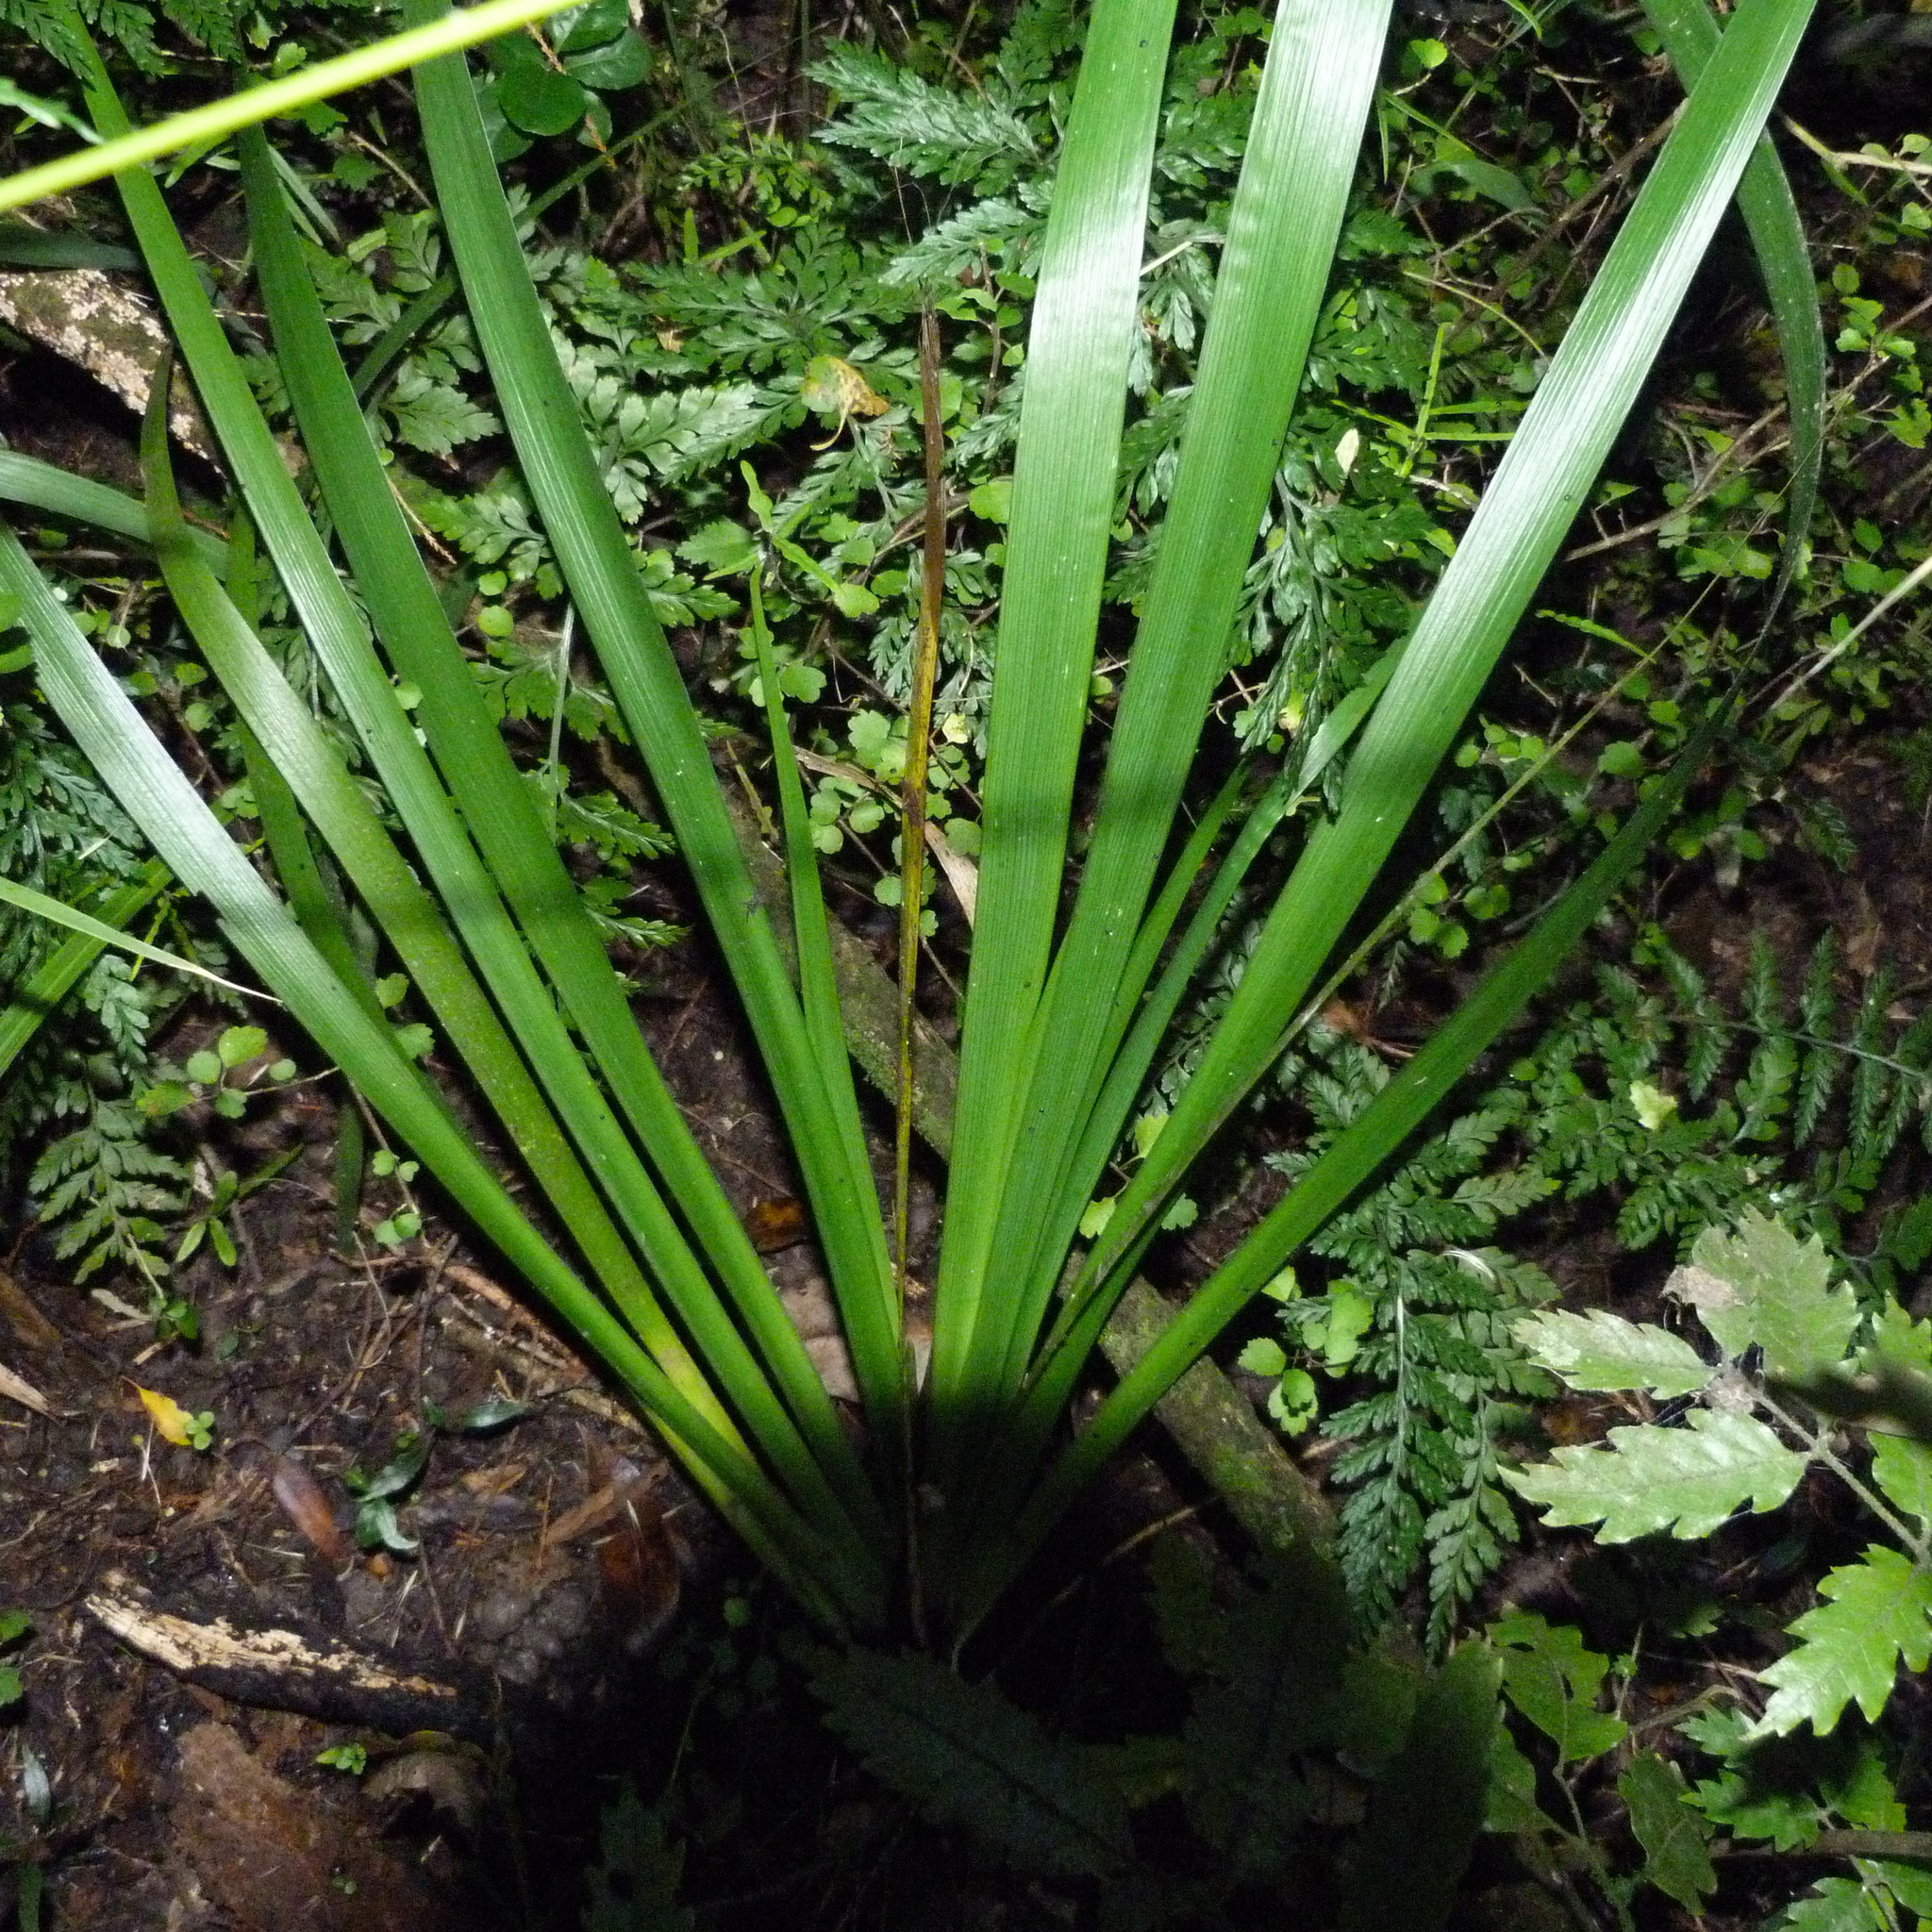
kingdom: Plantae
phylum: Tracheophyta
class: Liliopsida
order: Asparagales
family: Iridaceae
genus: Iris
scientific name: Iris foetidissima
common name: Stinking iris
